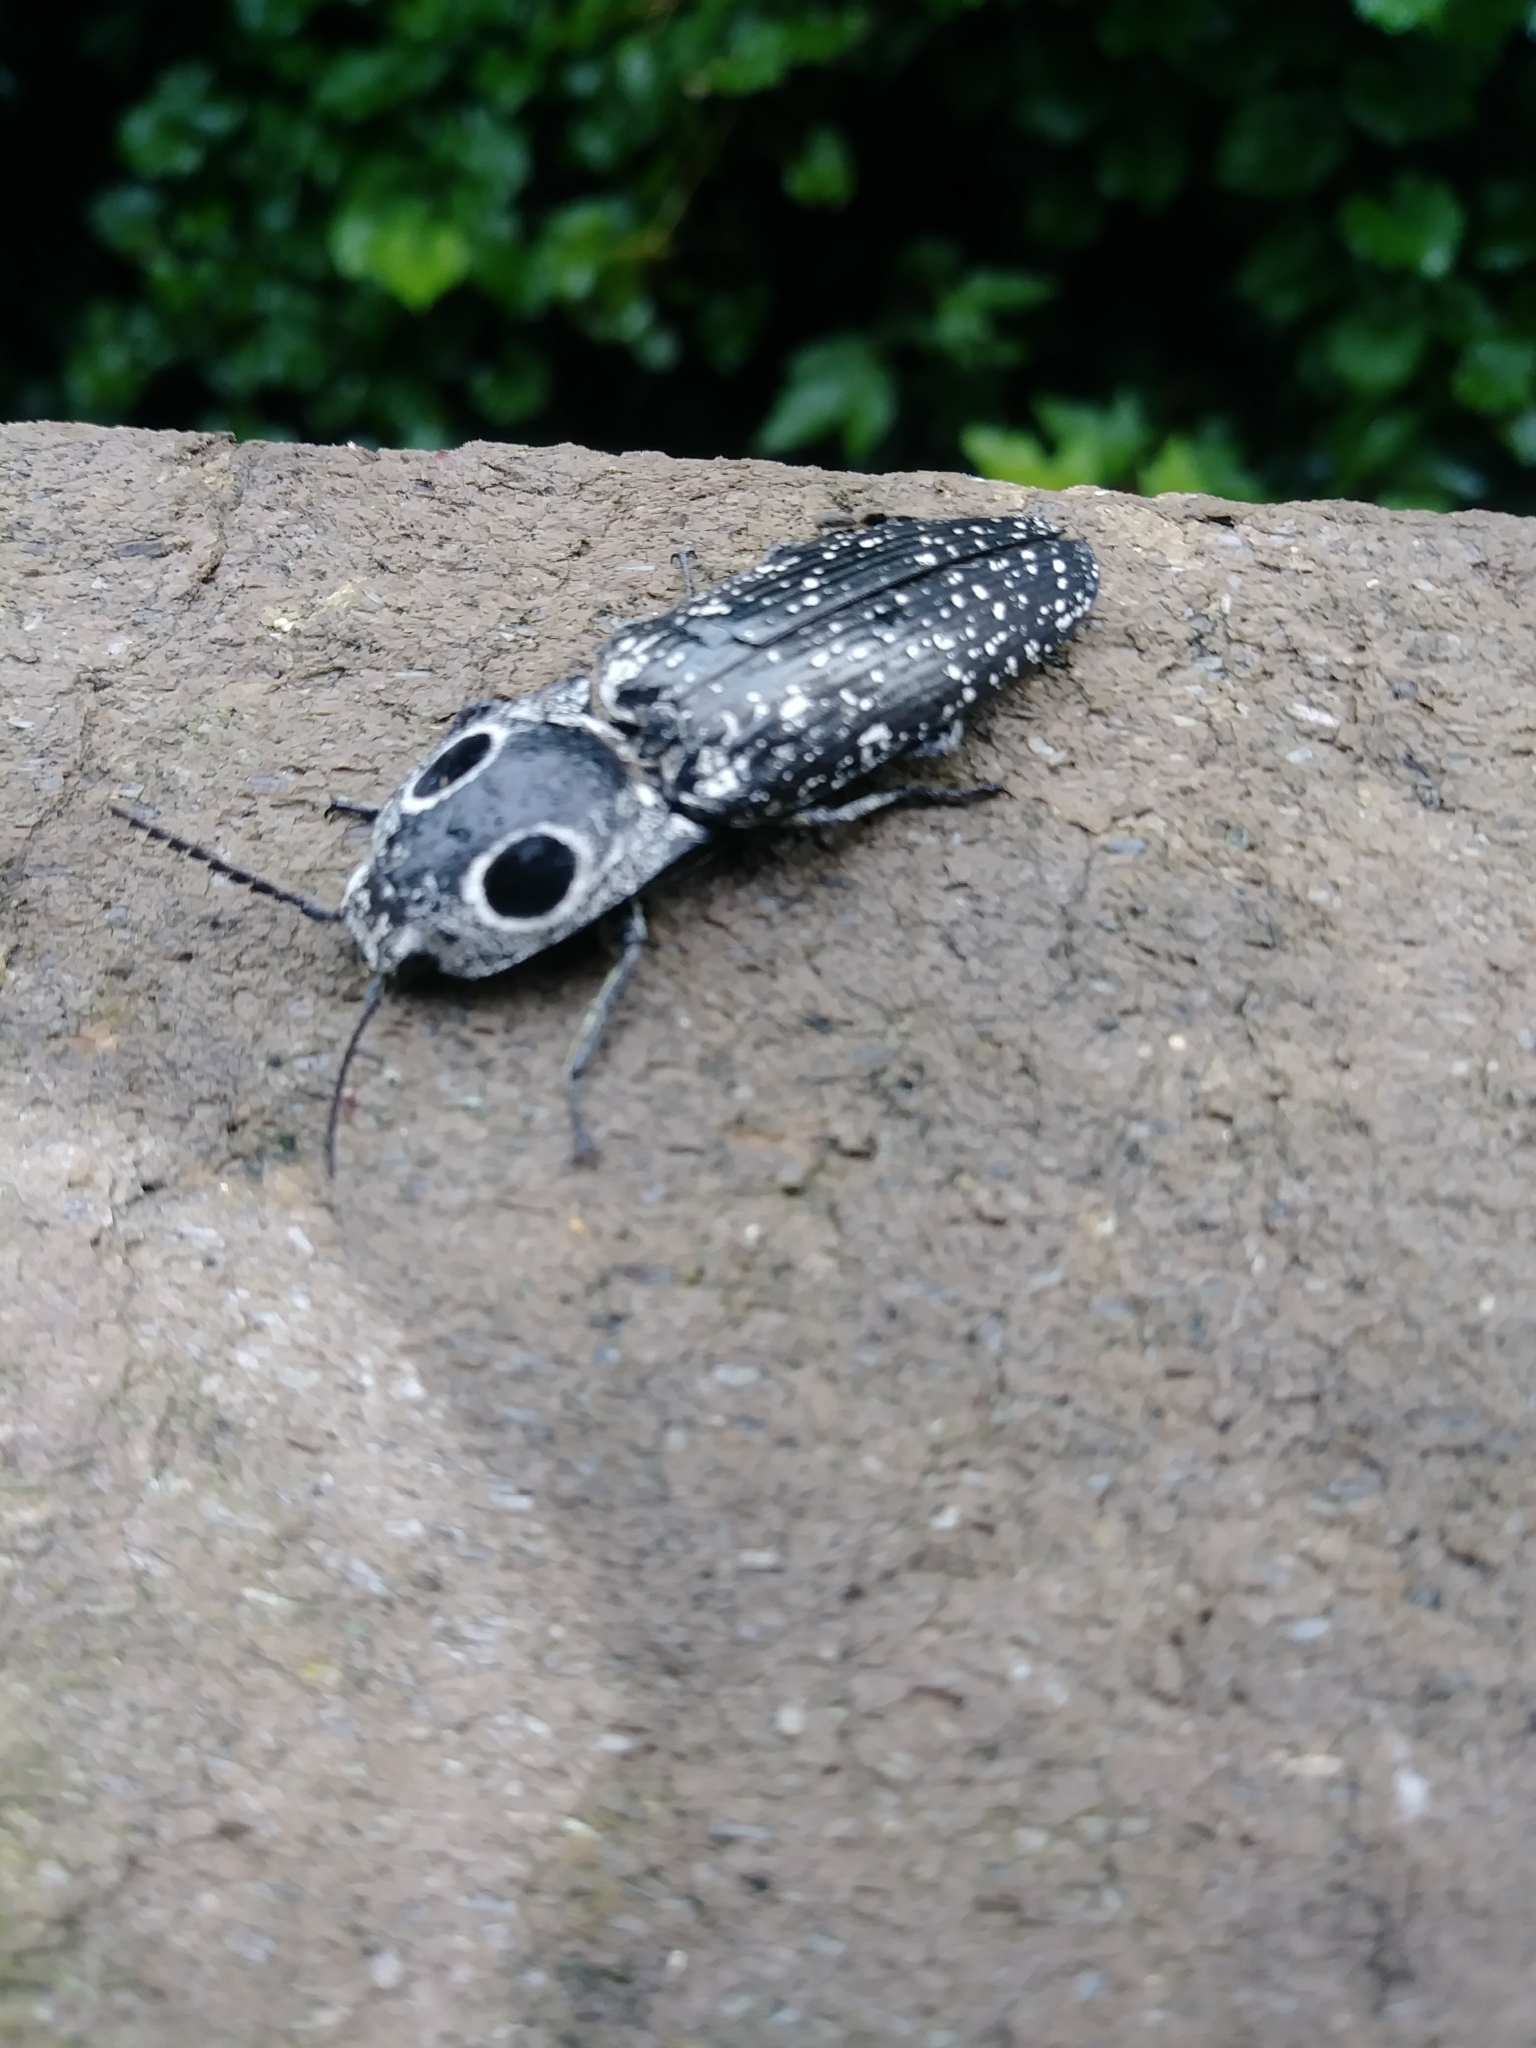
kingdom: Animalia
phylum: Arthropoda
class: Insecta
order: Coleoptera
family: Elateridae
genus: Alaus
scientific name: Alaus oculatus
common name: Eastern eyed click beetle
